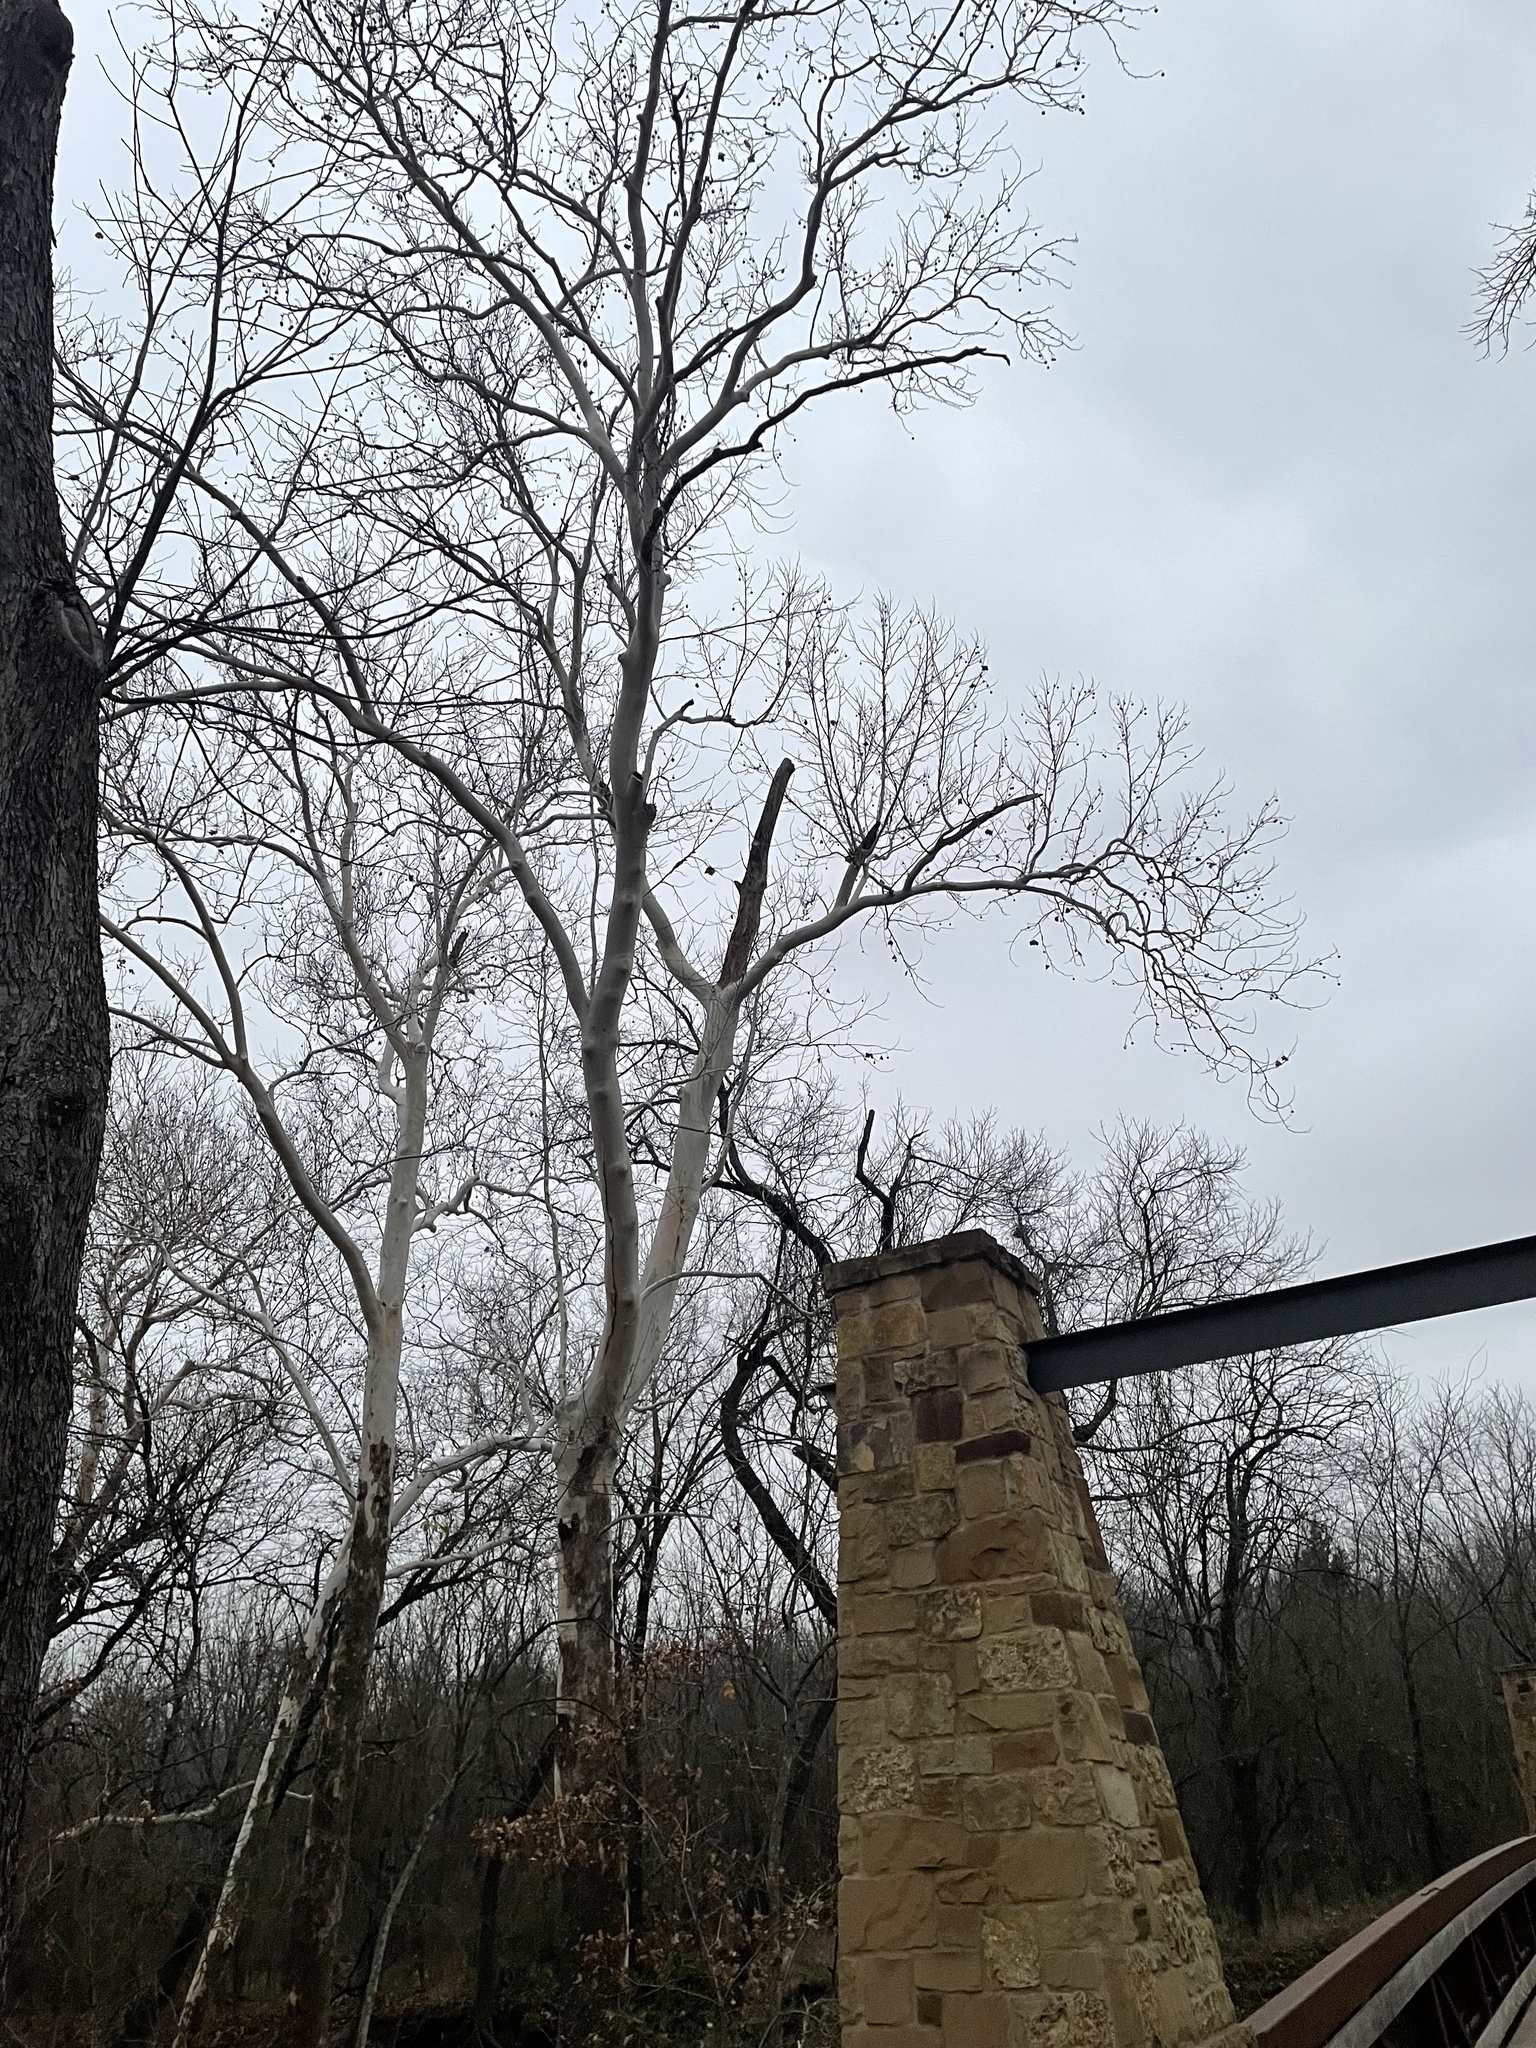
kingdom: Plantae
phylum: Tracheophyta
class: Magnoliopsida
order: Proteales
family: Platanaceae
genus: Platanus
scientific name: Platanus occidentalis
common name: American sycamore
